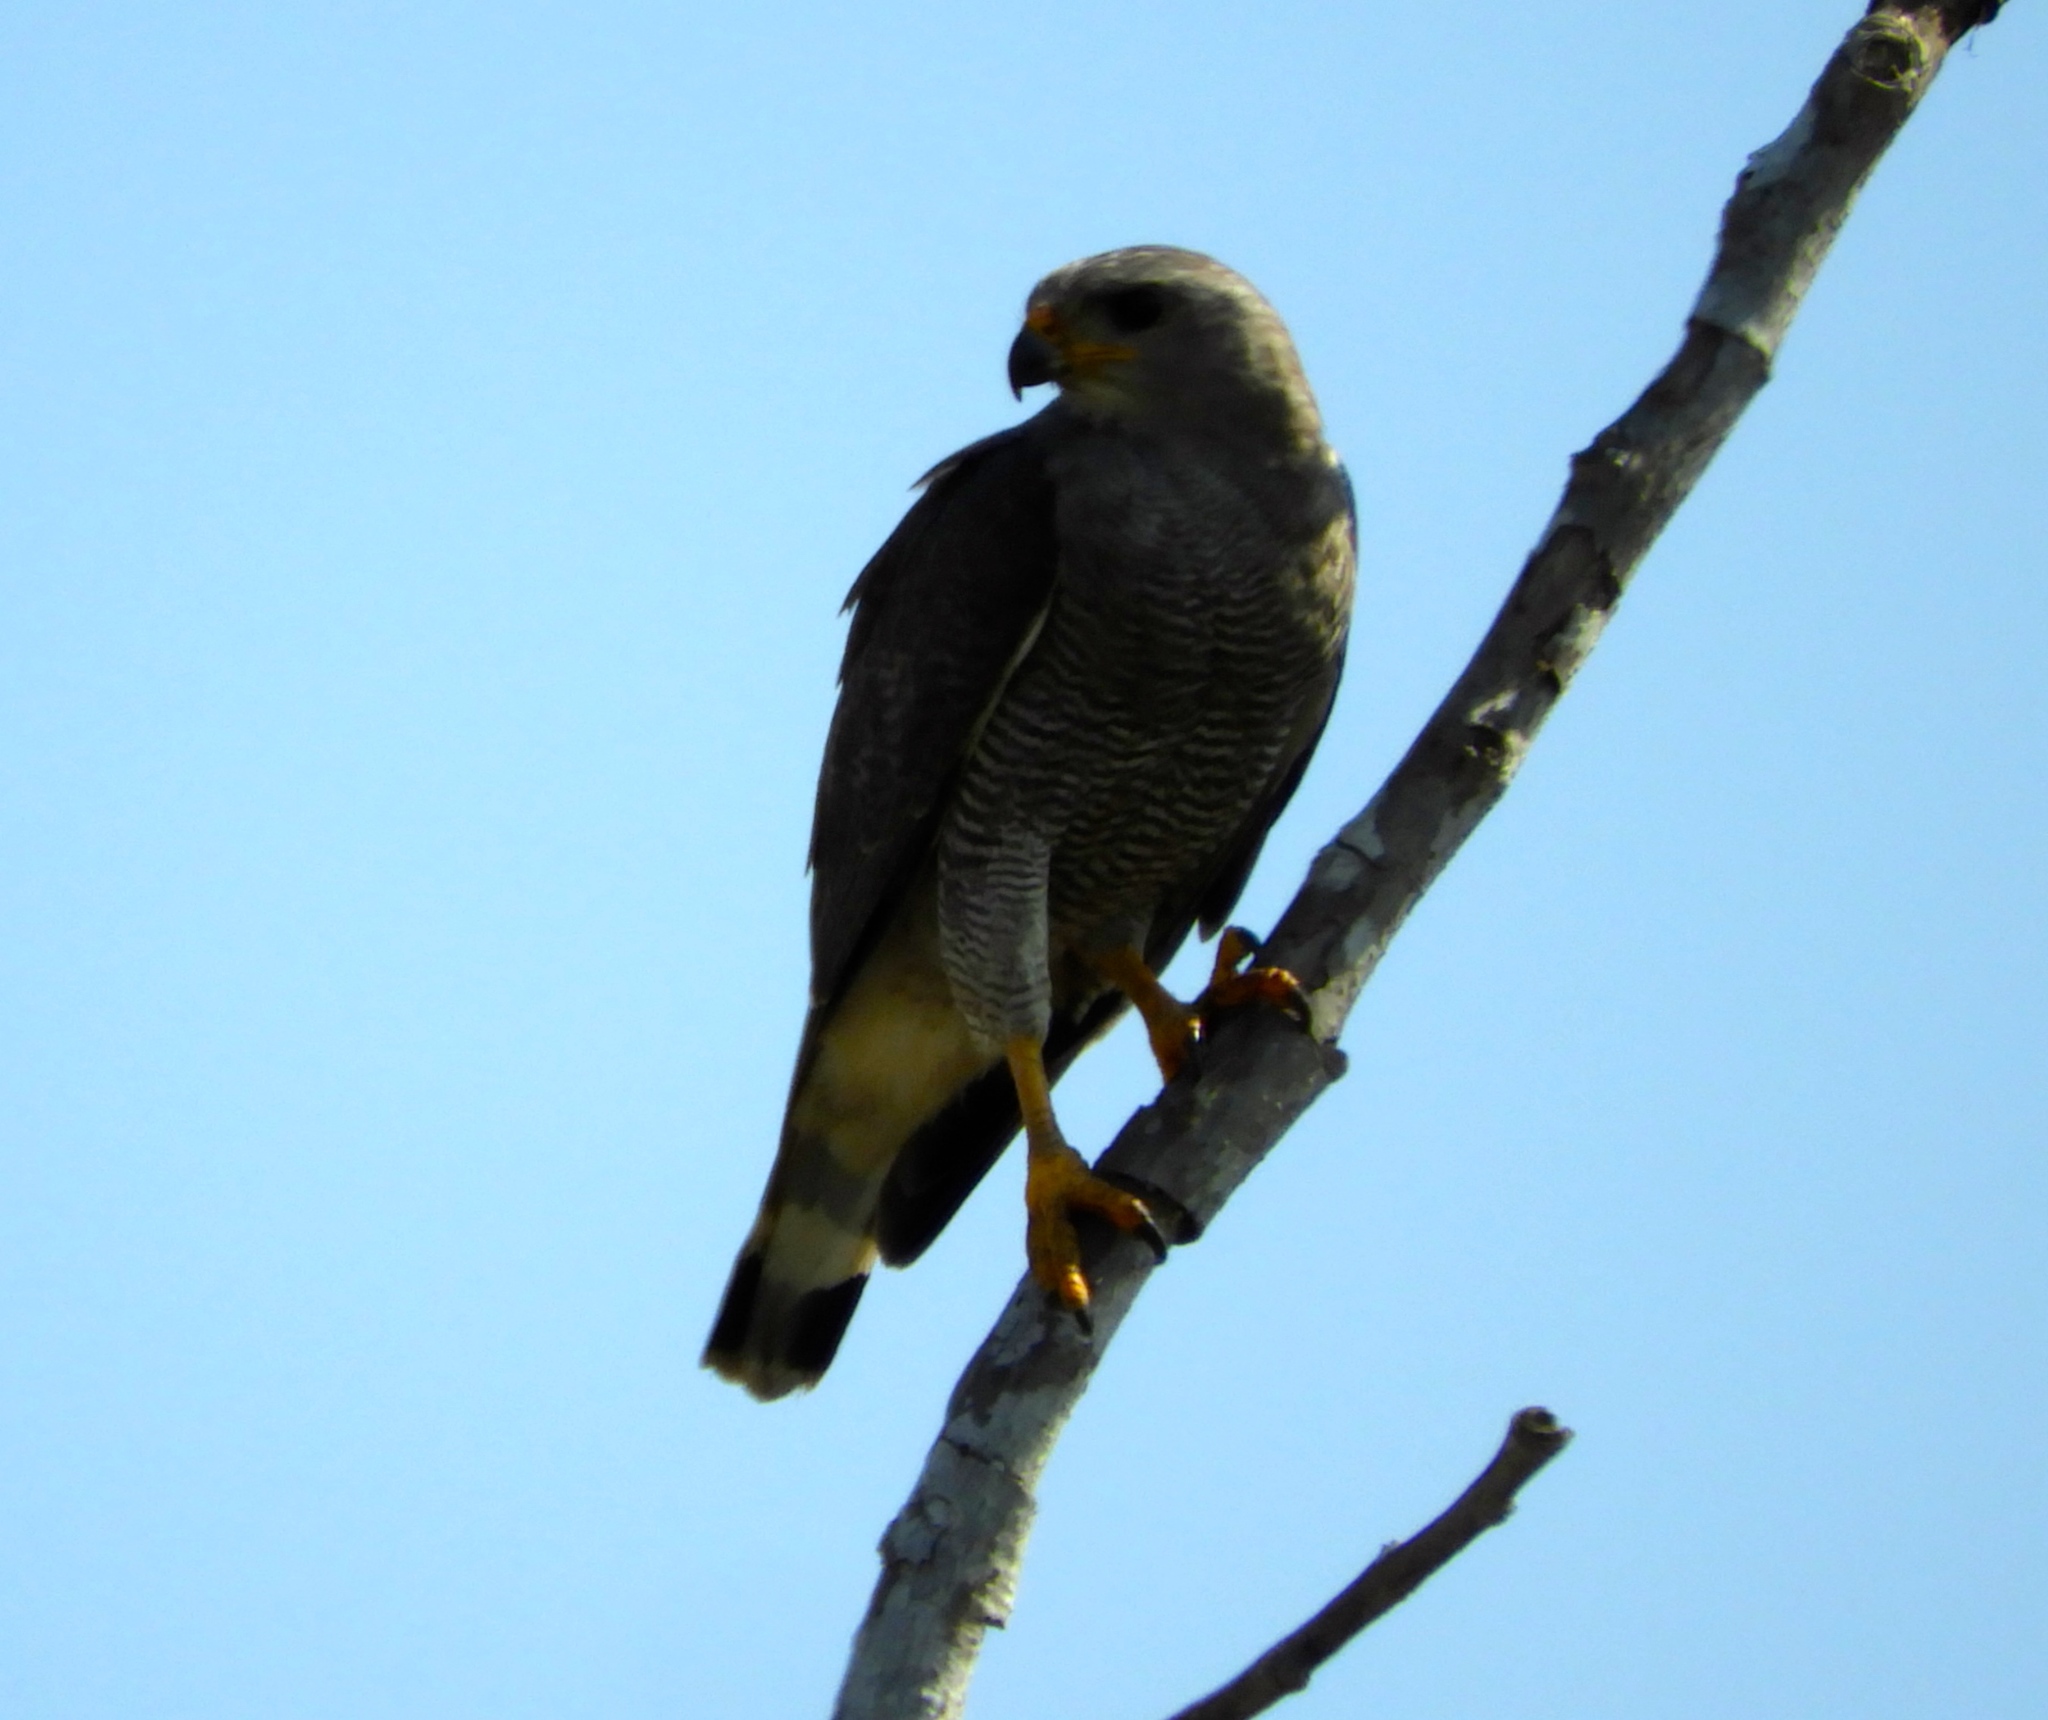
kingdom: Animalia
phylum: Chordata
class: Aves
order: Accipitriformes
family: Accipitridae
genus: Buteo
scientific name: Buteo nitidus
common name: Grey-lined hawk
